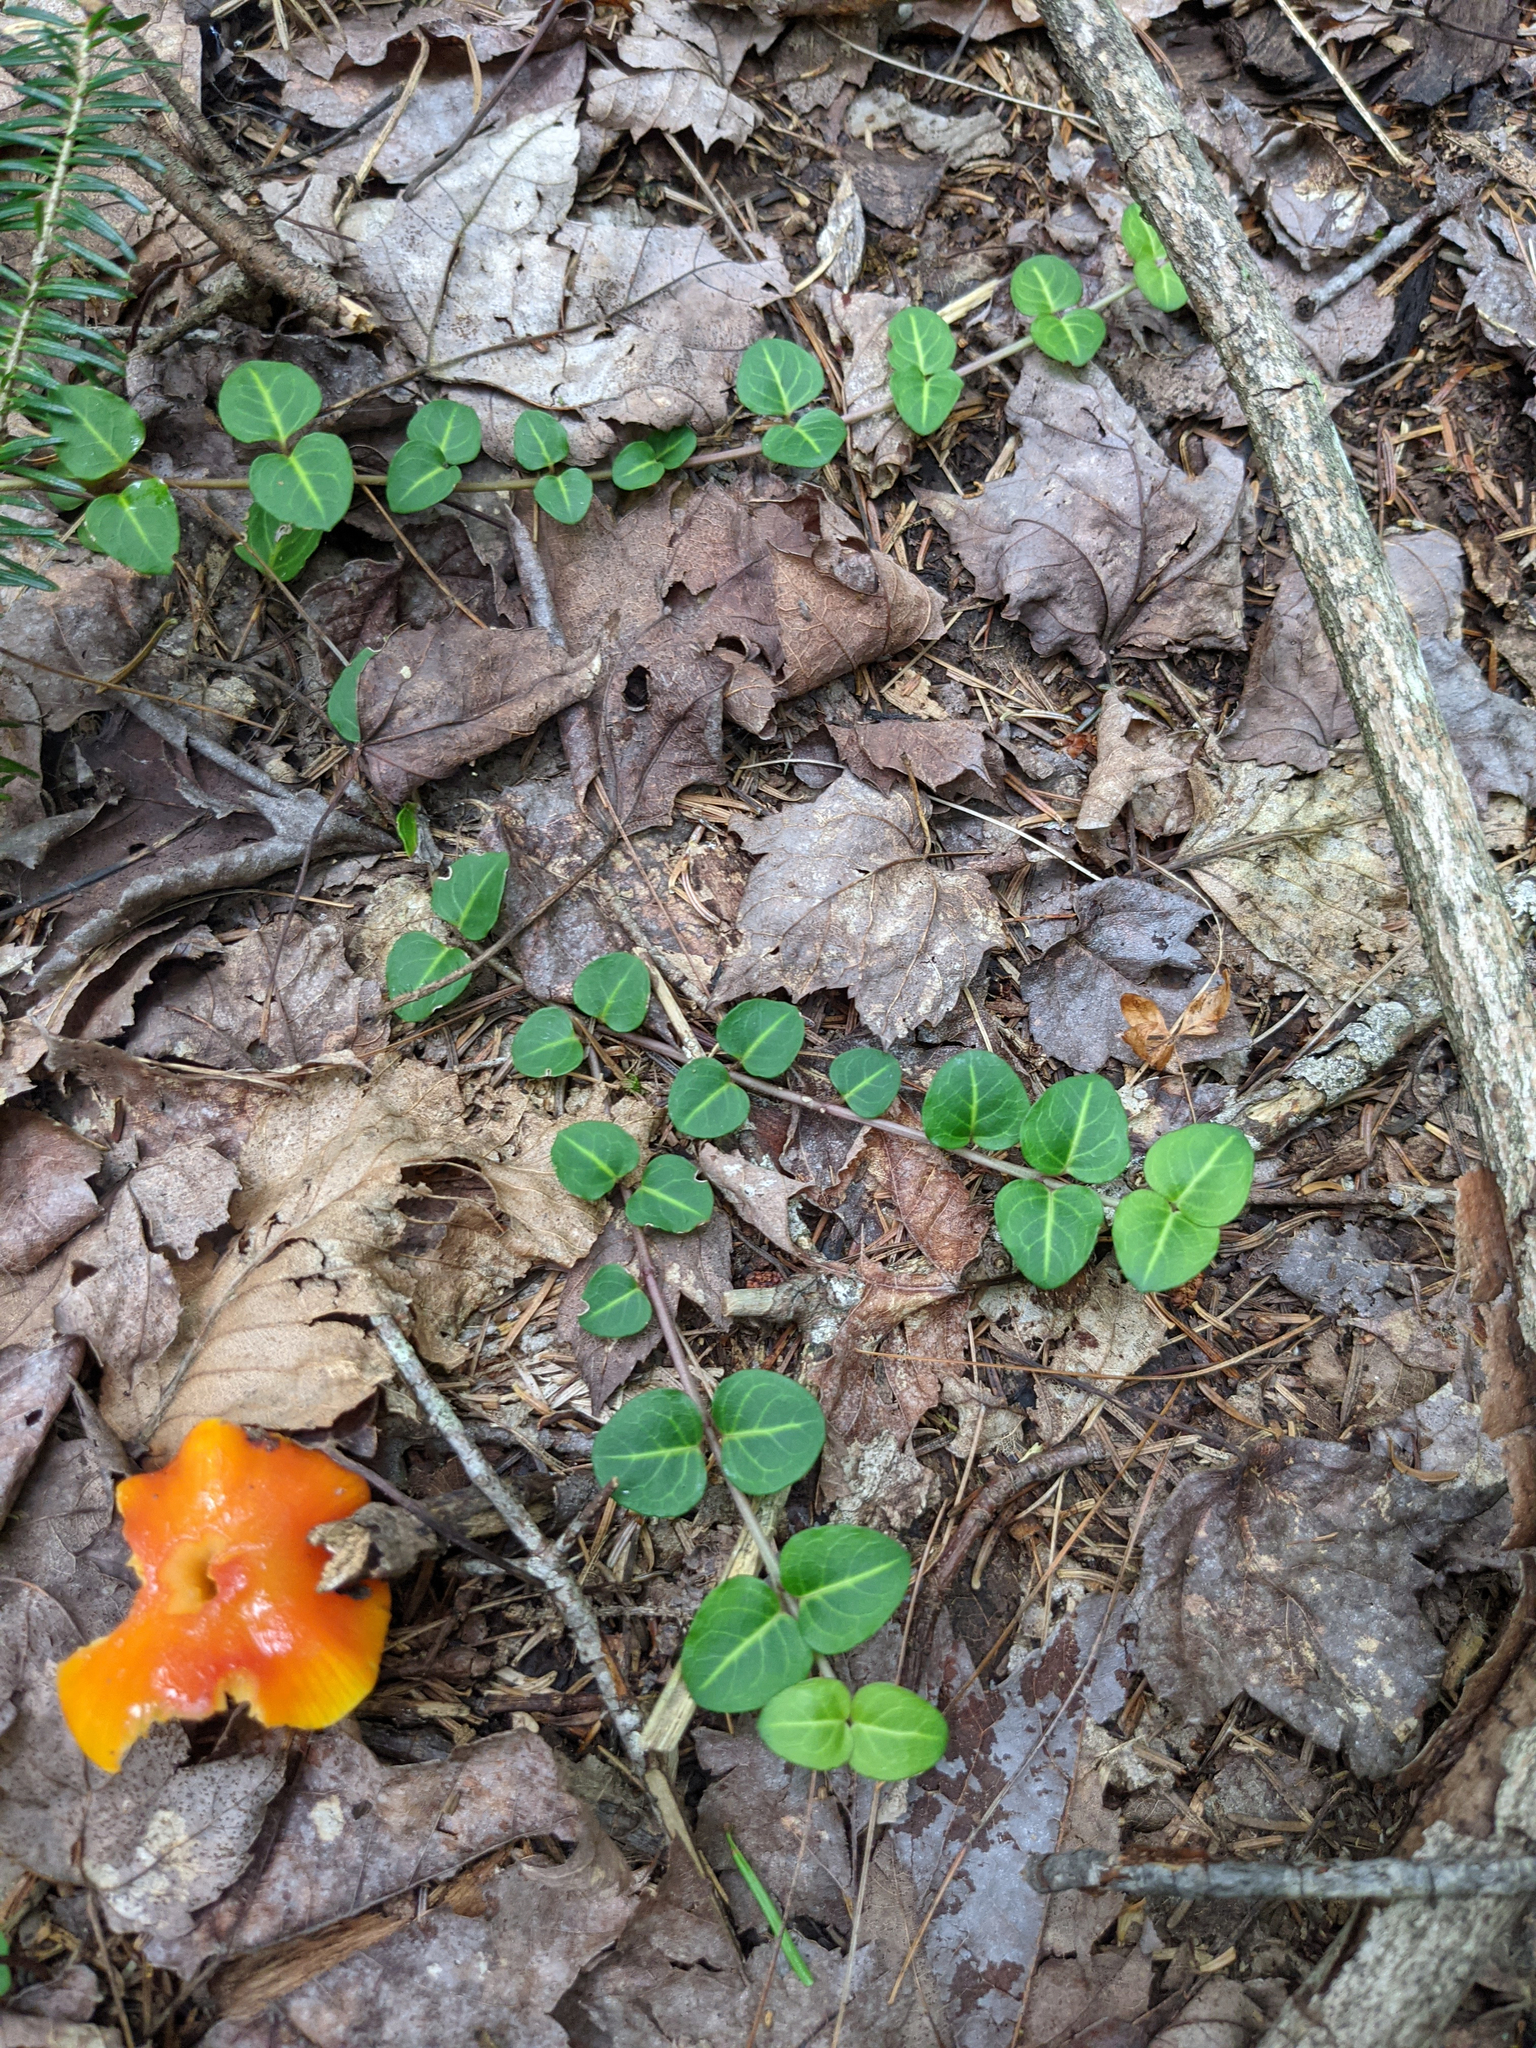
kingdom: Plantae
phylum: Tracheophyta
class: Magnoliopsida
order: Gentianales
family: Rubiaceae
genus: Mitchella
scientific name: Mitchella repens
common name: Partridge-berry
